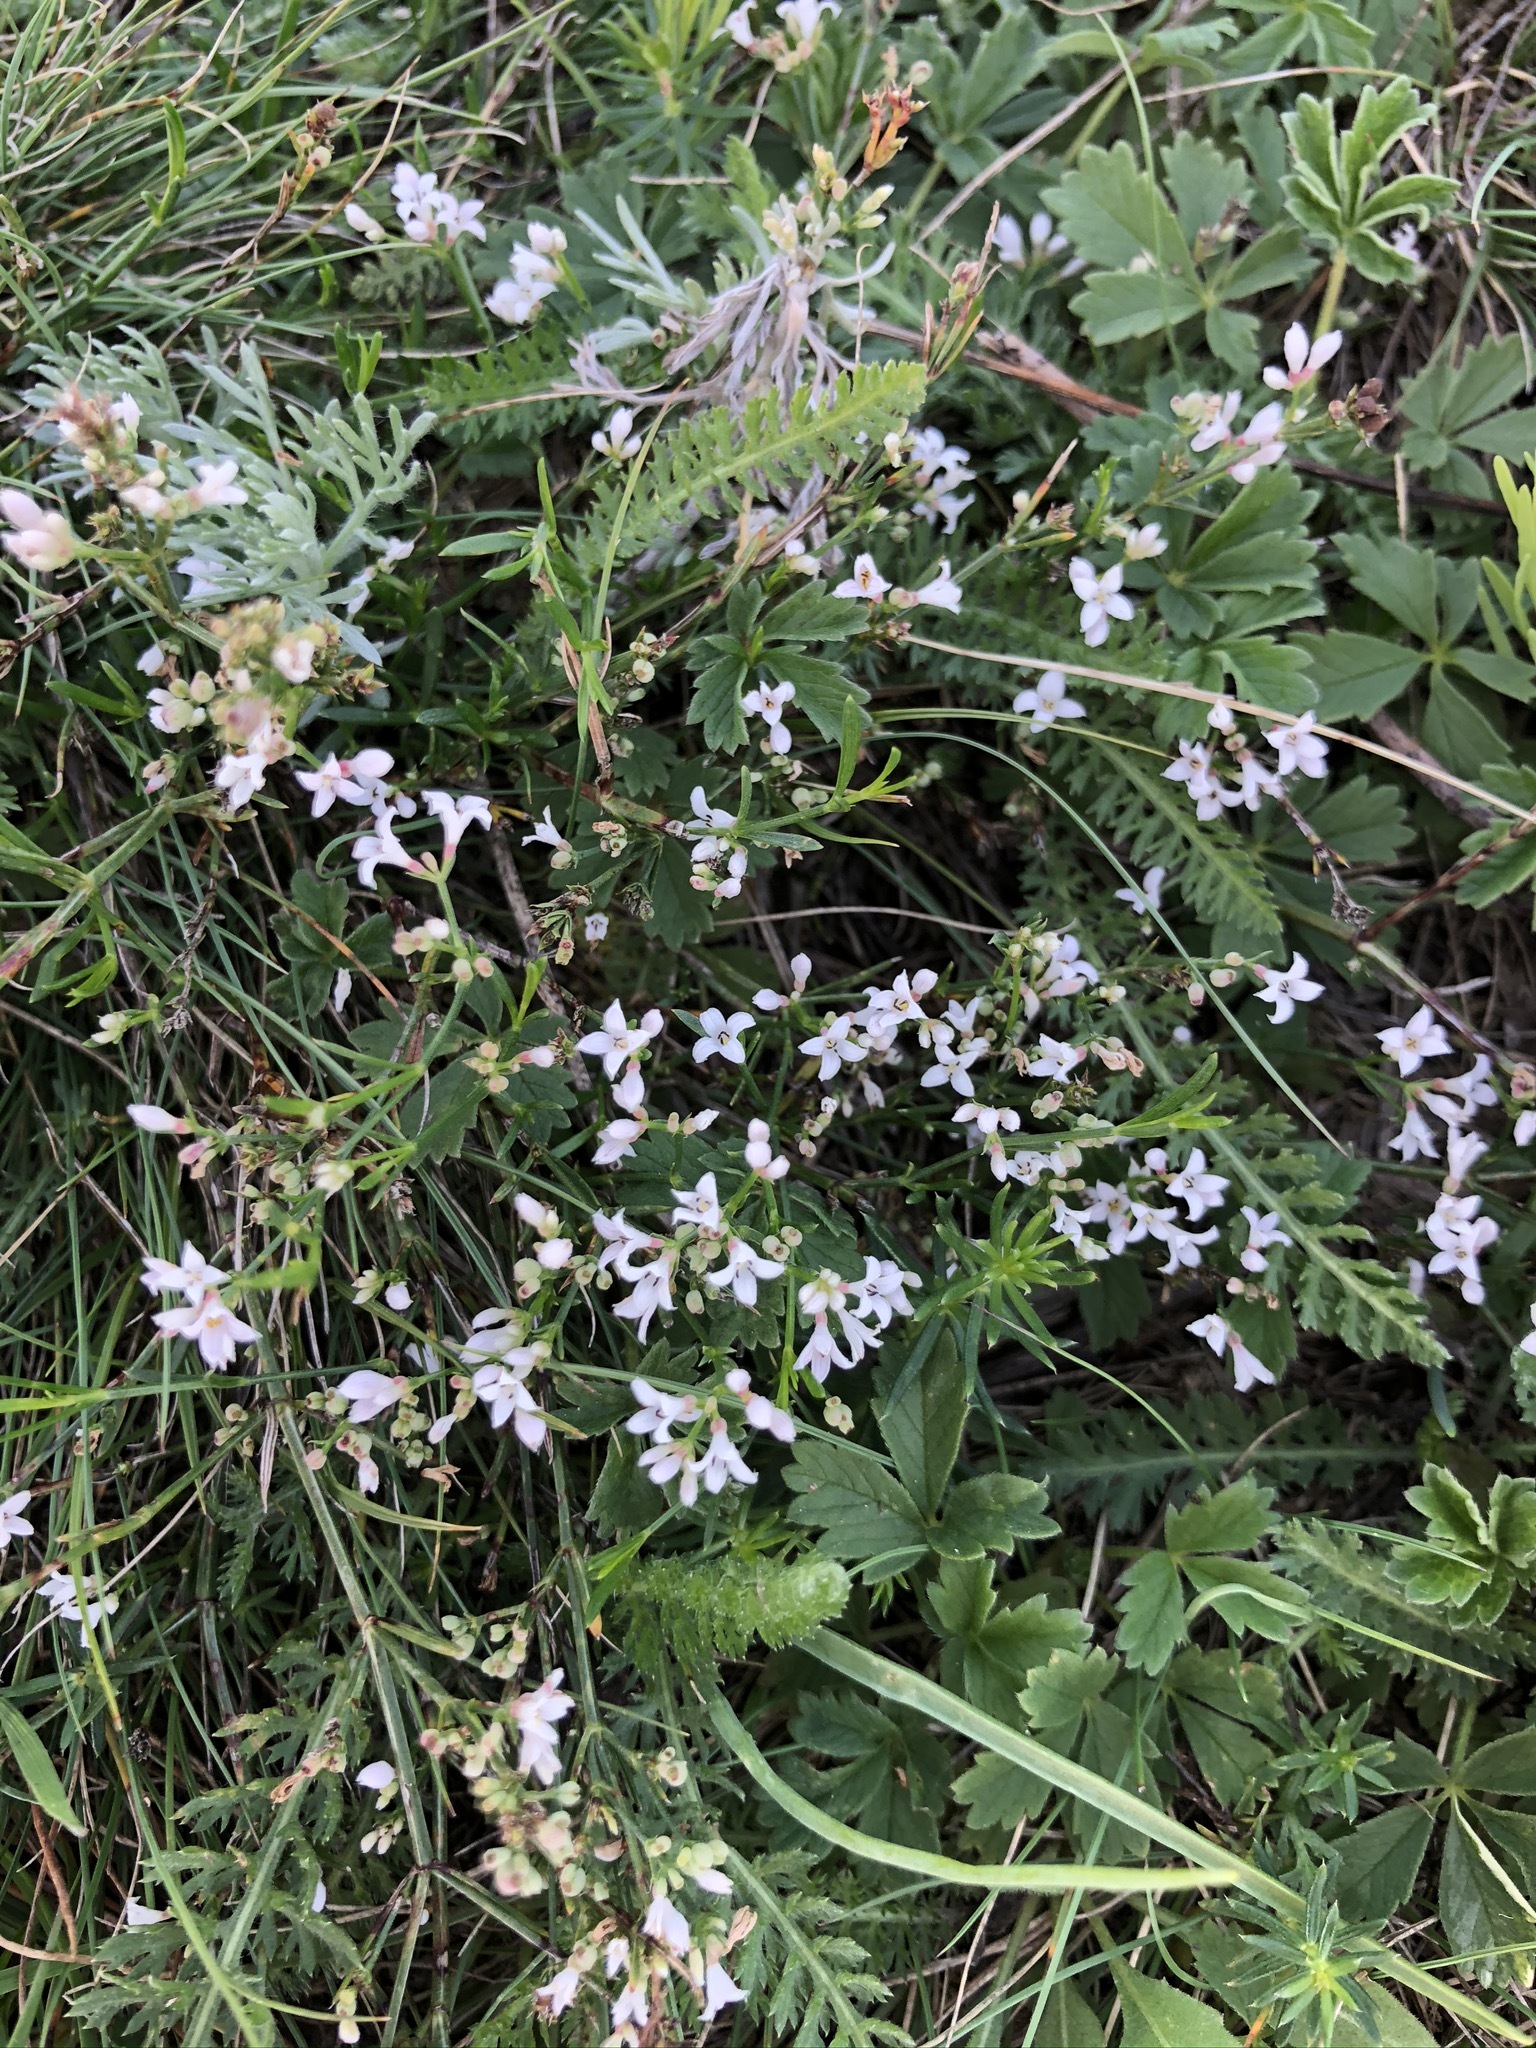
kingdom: Plantae
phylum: Tracheophyta
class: Magnoliopsida
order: Gentianales
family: Rubiaceae
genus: Cynanchica
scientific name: Cynanchica pyrenaica
